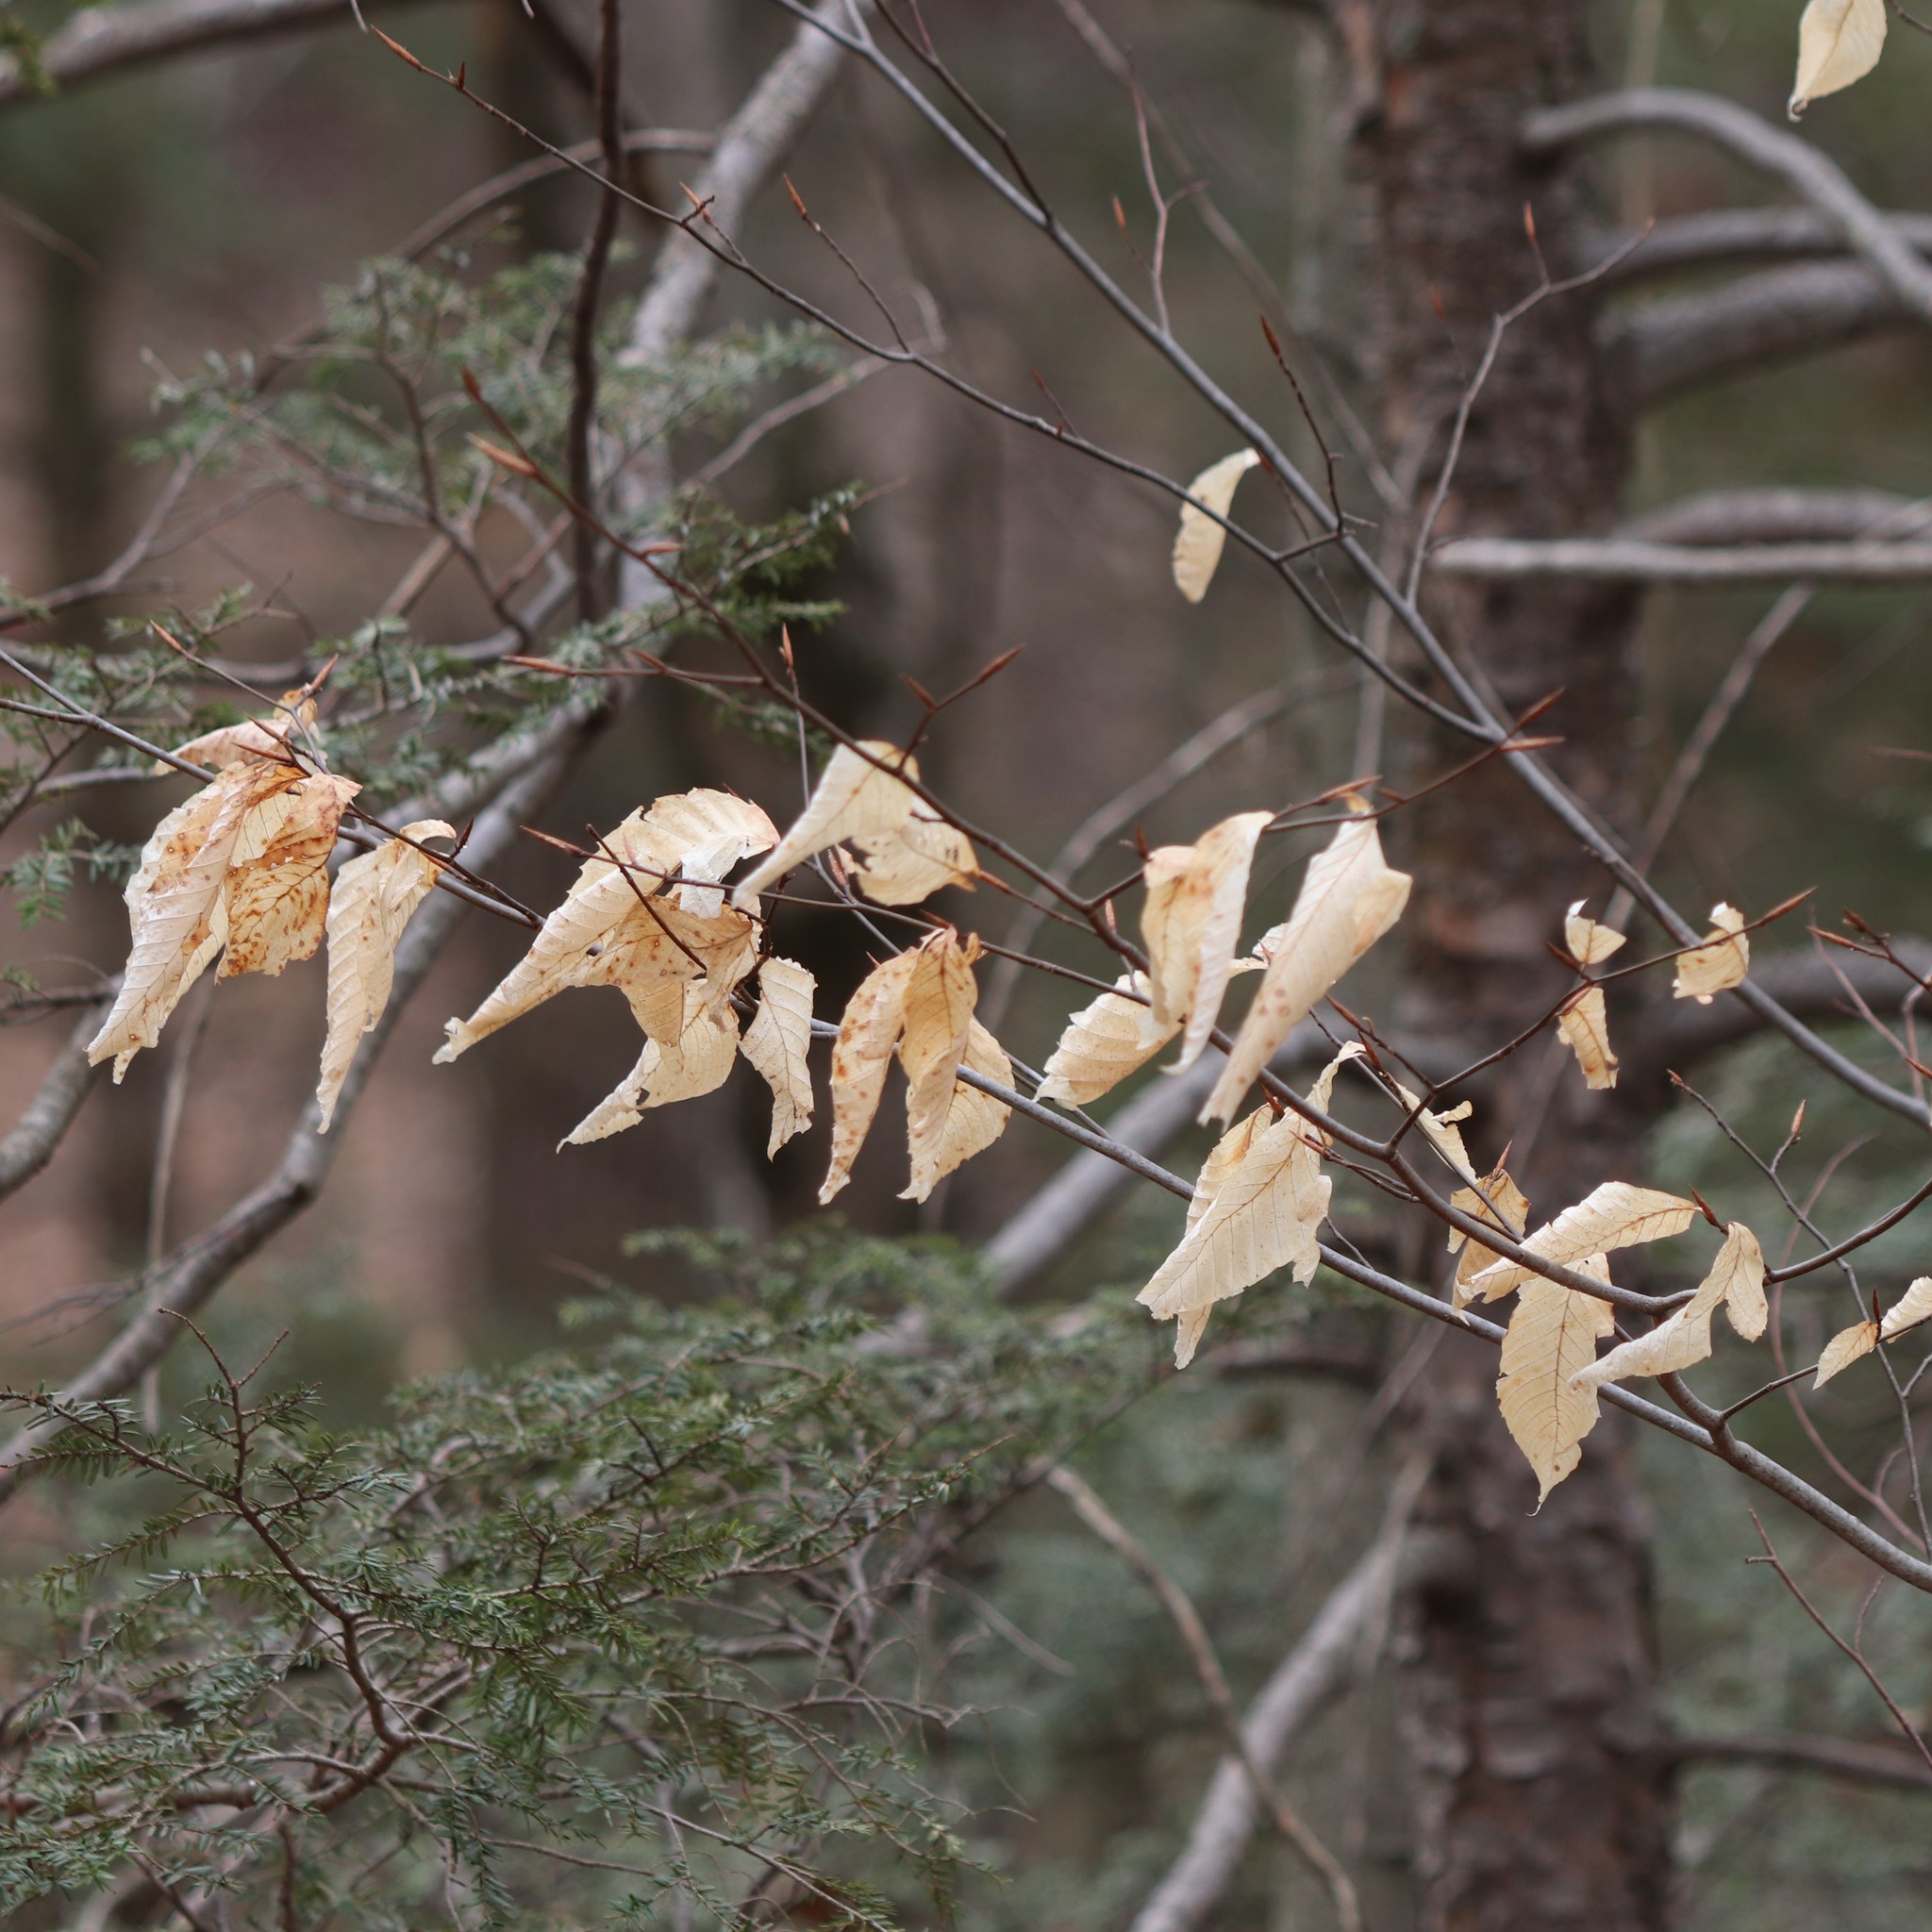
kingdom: Plantae
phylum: Tracheophyta
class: Magnoliopsida
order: Fagales
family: Fagaceae
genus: Fagus
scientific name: Fagus grandifolia
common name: American beech
